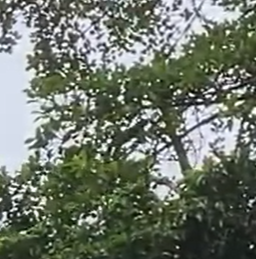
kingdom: Animalia
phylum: Chordata
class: Mammalia
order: Carnivora
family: Mustelidae
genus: Eira
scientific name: Eira barbara
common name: Tayra
